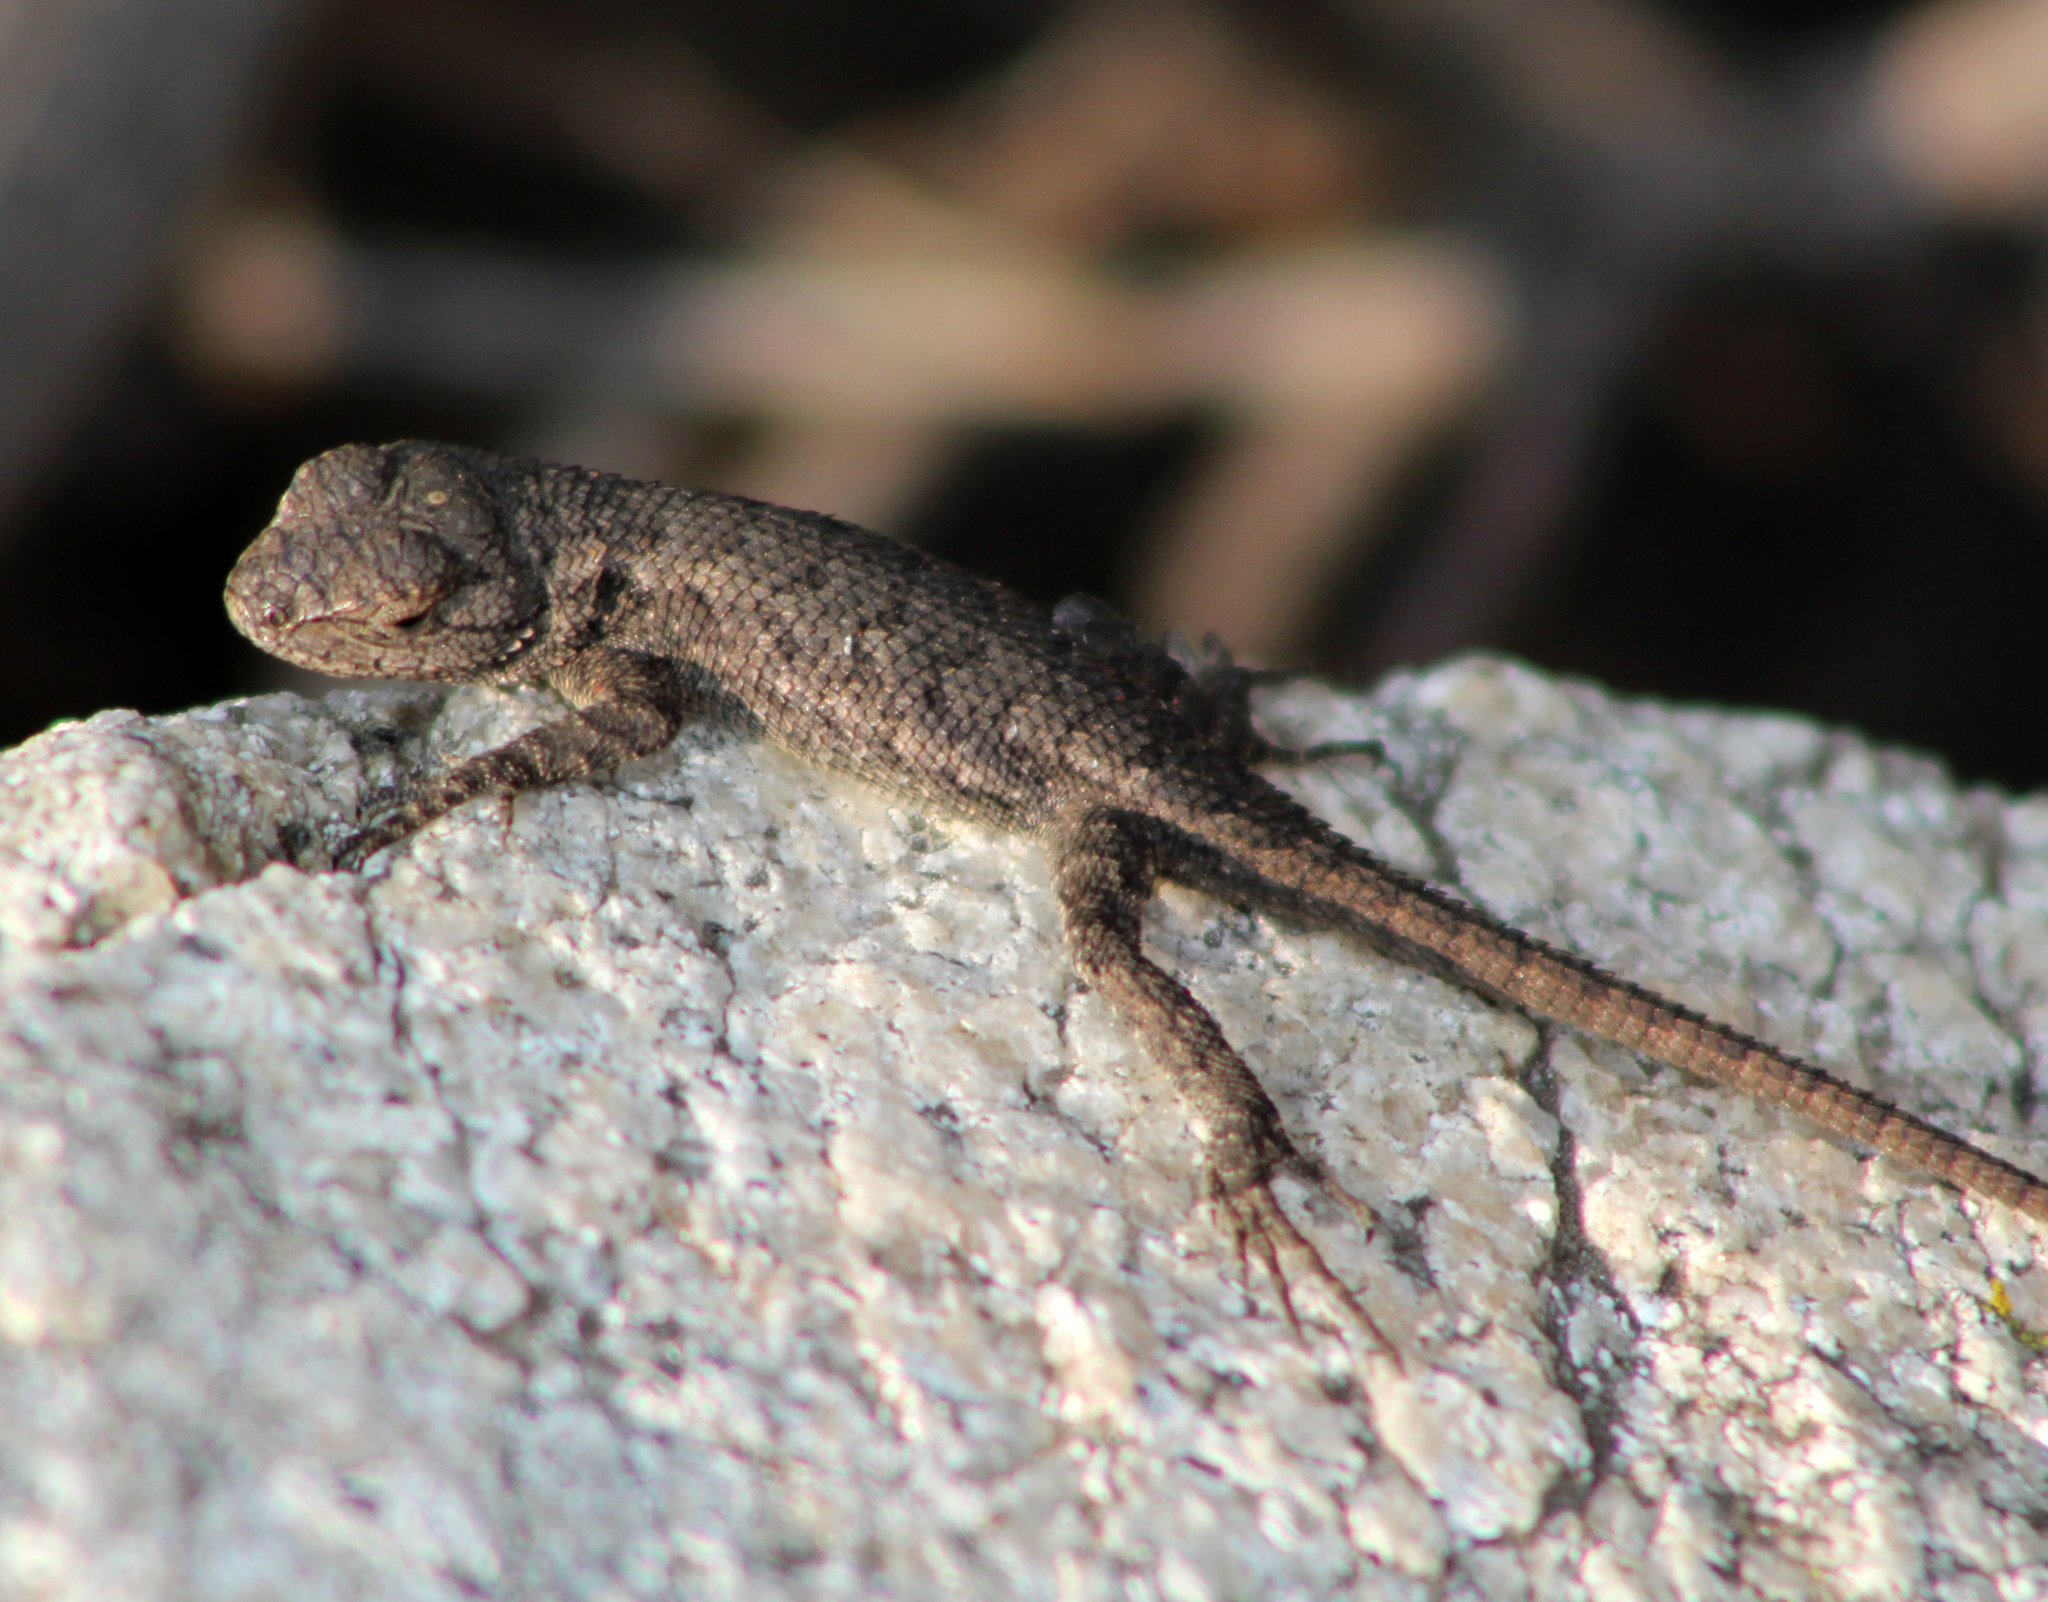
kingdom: Animalia
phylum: Chordata
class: Squamata
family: Phrynosomatidae
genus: Sceloporus
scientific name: Sceloporus occidentalis
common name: Western fence lizard
